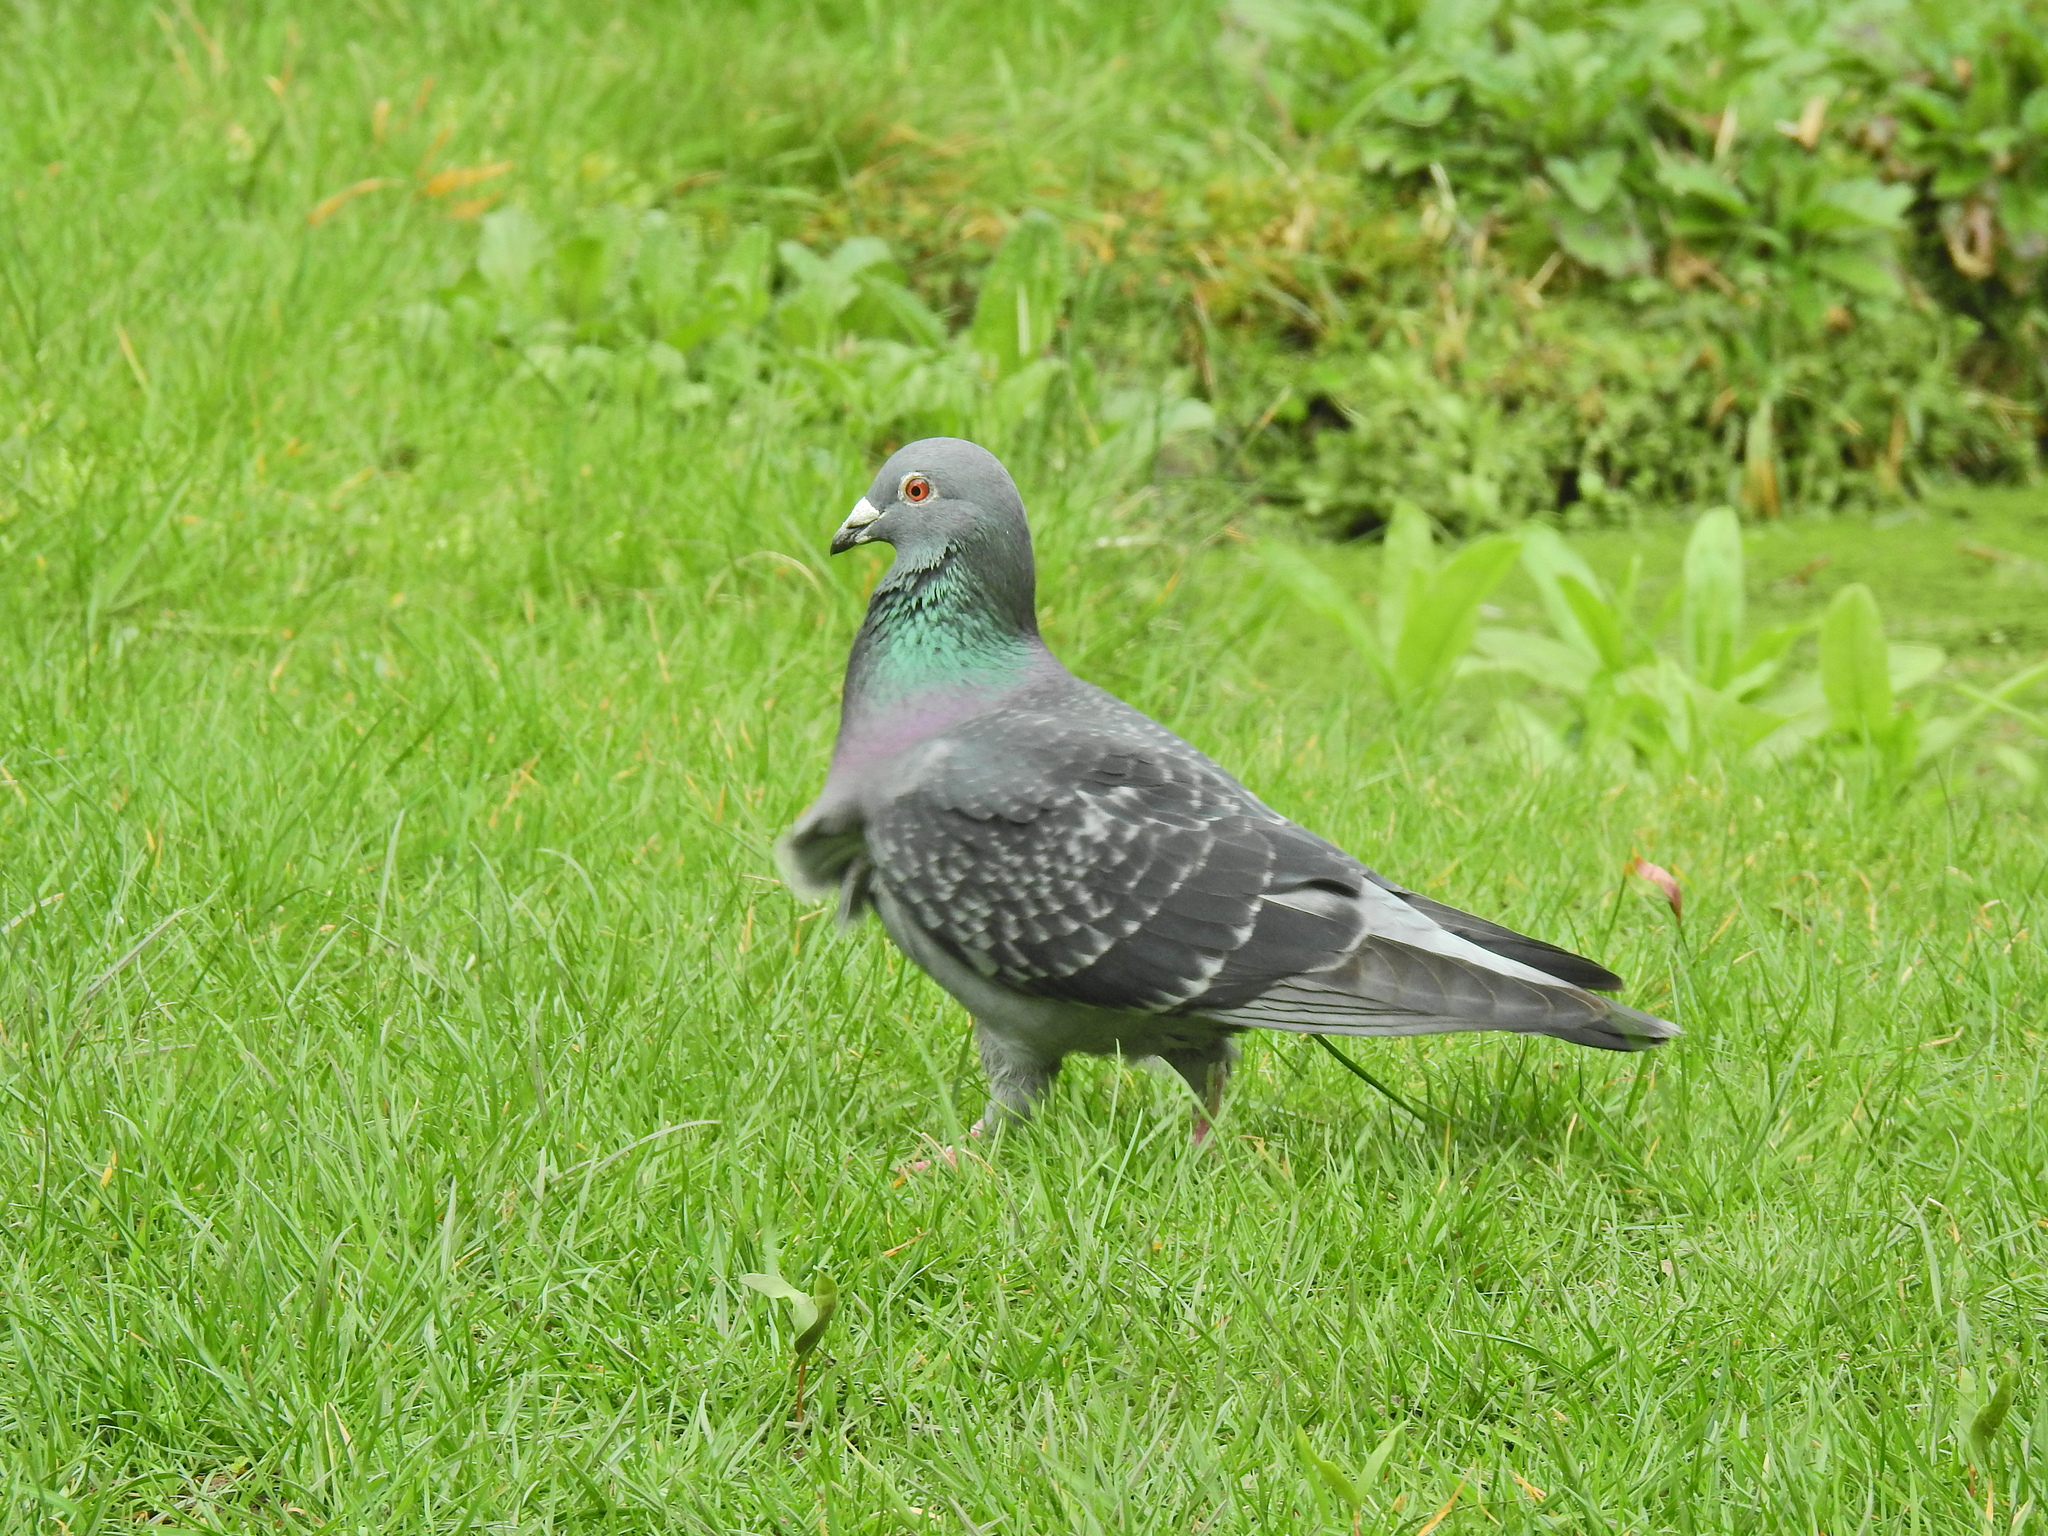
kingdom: Animalia
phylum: Chordata
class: Aves
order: Columbiformes
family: Columbidae
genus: Columba
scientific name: Columba livia
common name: Rock pigeon
